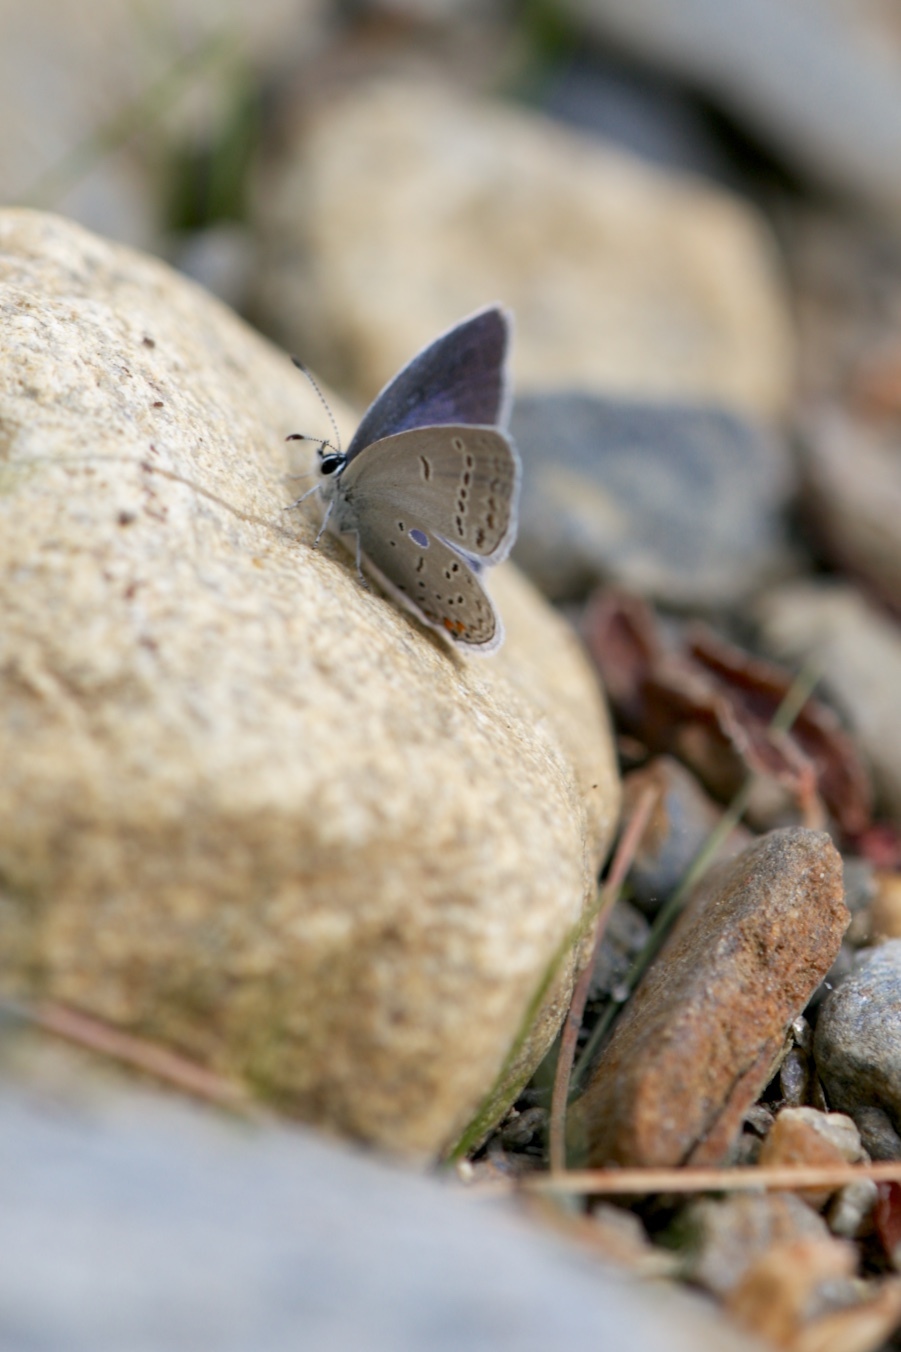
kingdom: Animalia
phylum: Arthropoda
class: Insecta
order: Lepidoptera
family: Lycaenidae
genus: Elkalyce
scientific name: Elkalyce comyntas
